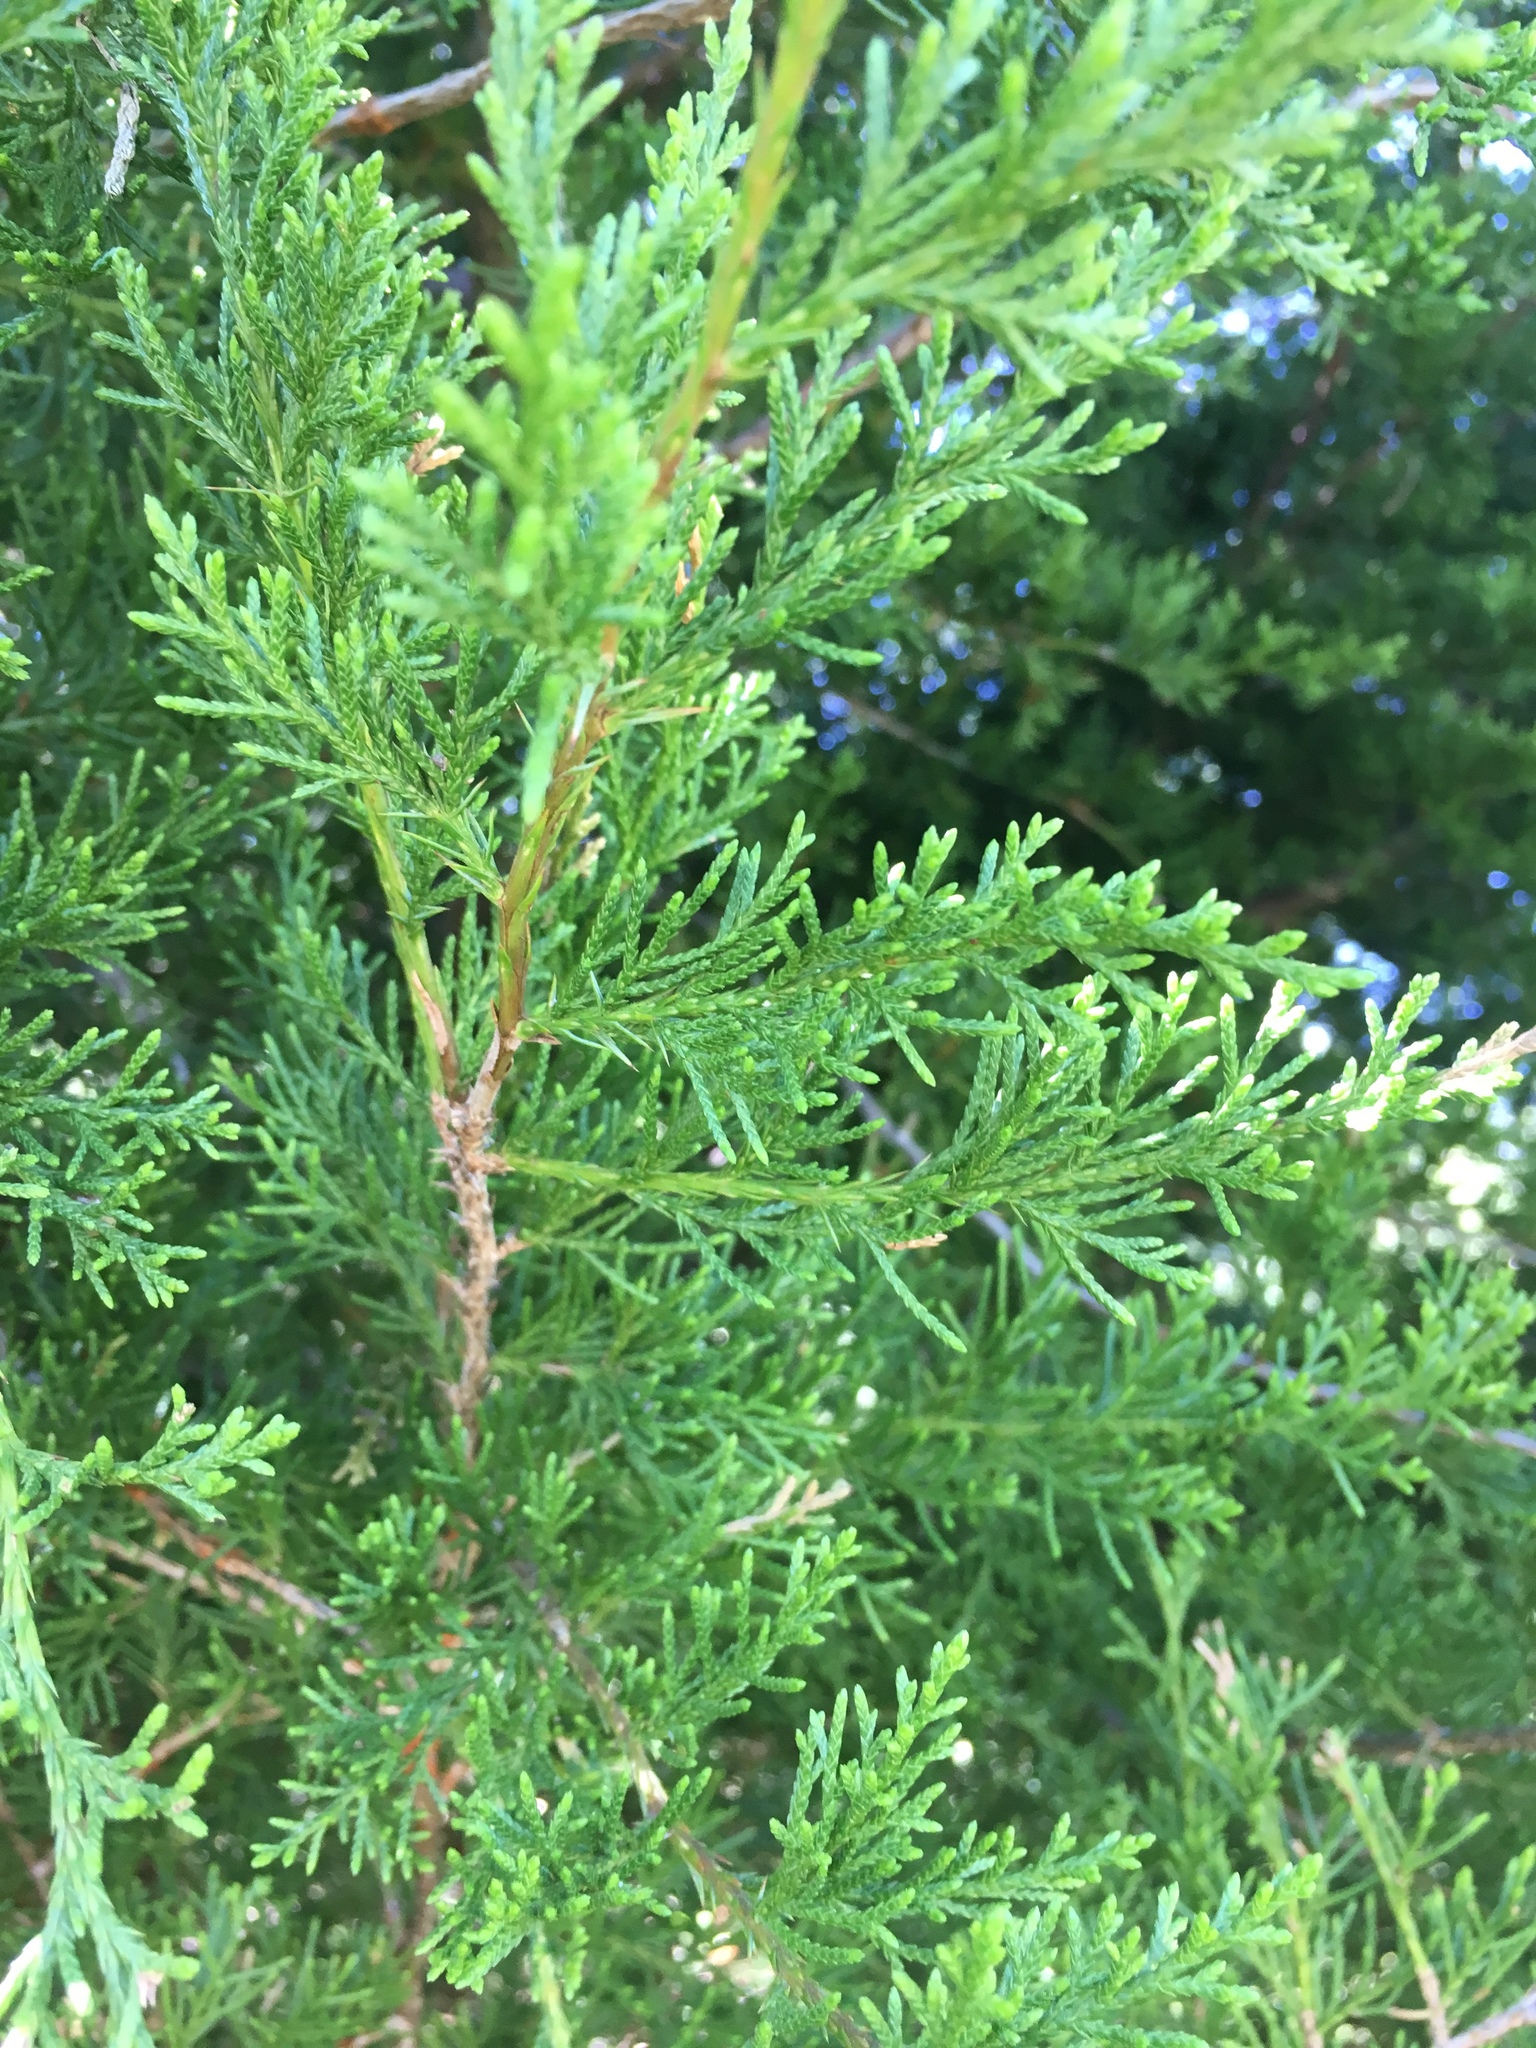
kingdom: Plantae
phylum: Tracheophyta
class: Pinopsida
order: Pinales
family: Cupressaceae
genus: Juniperus
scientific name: Juniperus virginiana
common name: Red juniper
